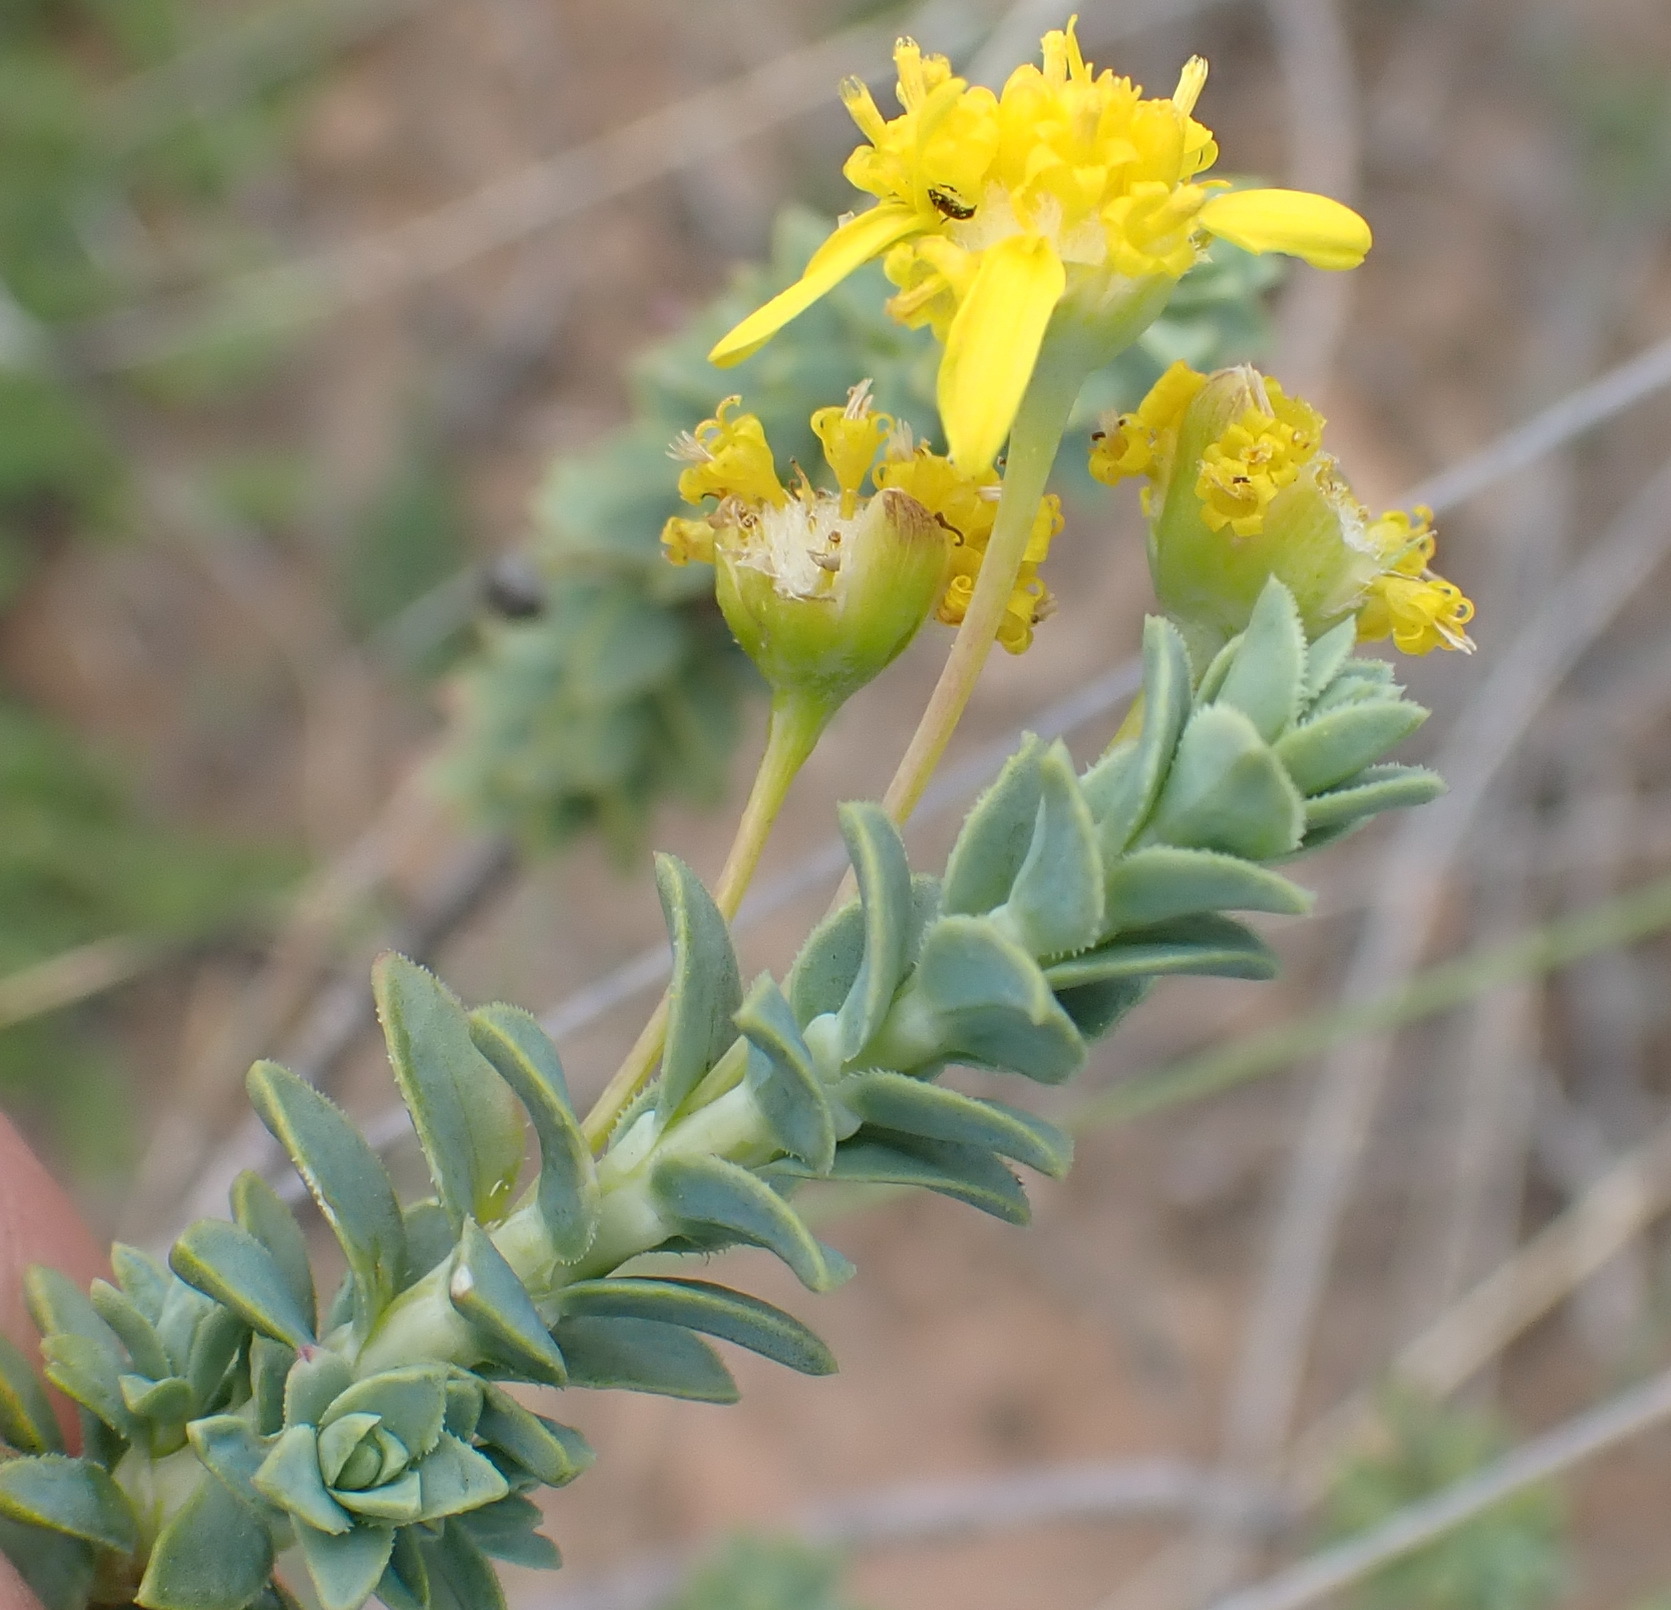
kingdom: Plantae
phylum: Tracheophyta
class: Magnoliopsida
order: Asterales
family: Asteraceae
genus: Euryops
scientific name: Euryops empetrifolius
